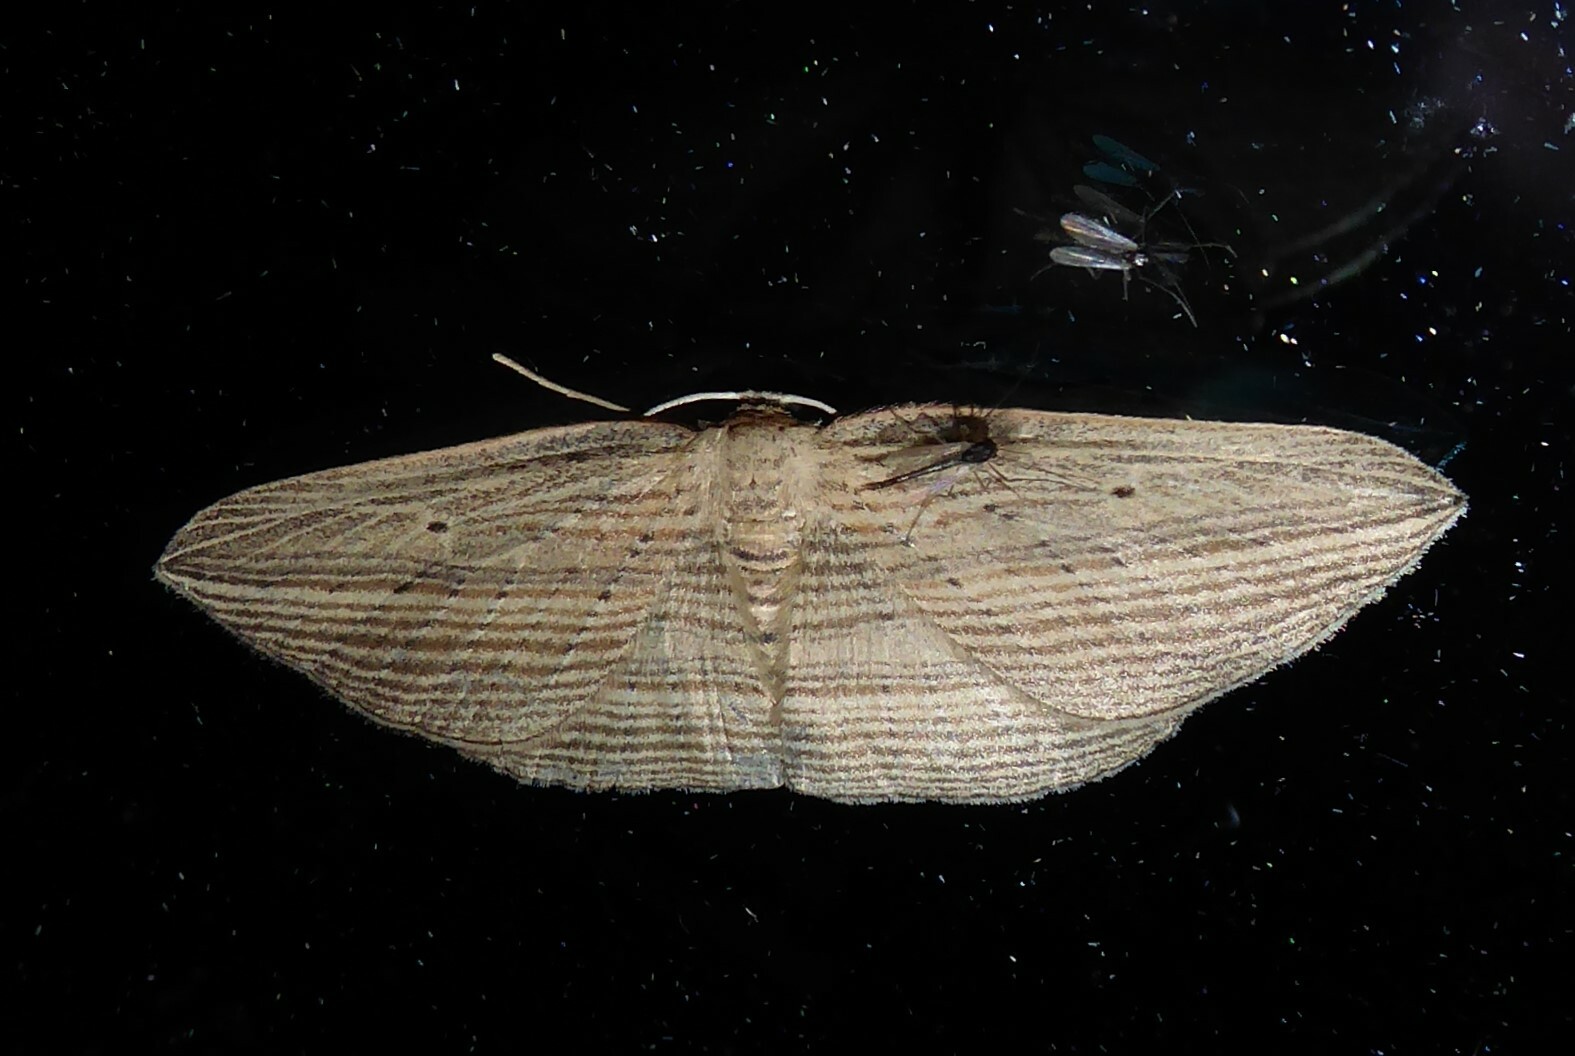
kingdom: Animalia
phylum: Arthropoda
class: Insecta
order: Lepidoptera
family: Geometridae
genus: Epiphryne
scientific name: Epiphryne verriculata
